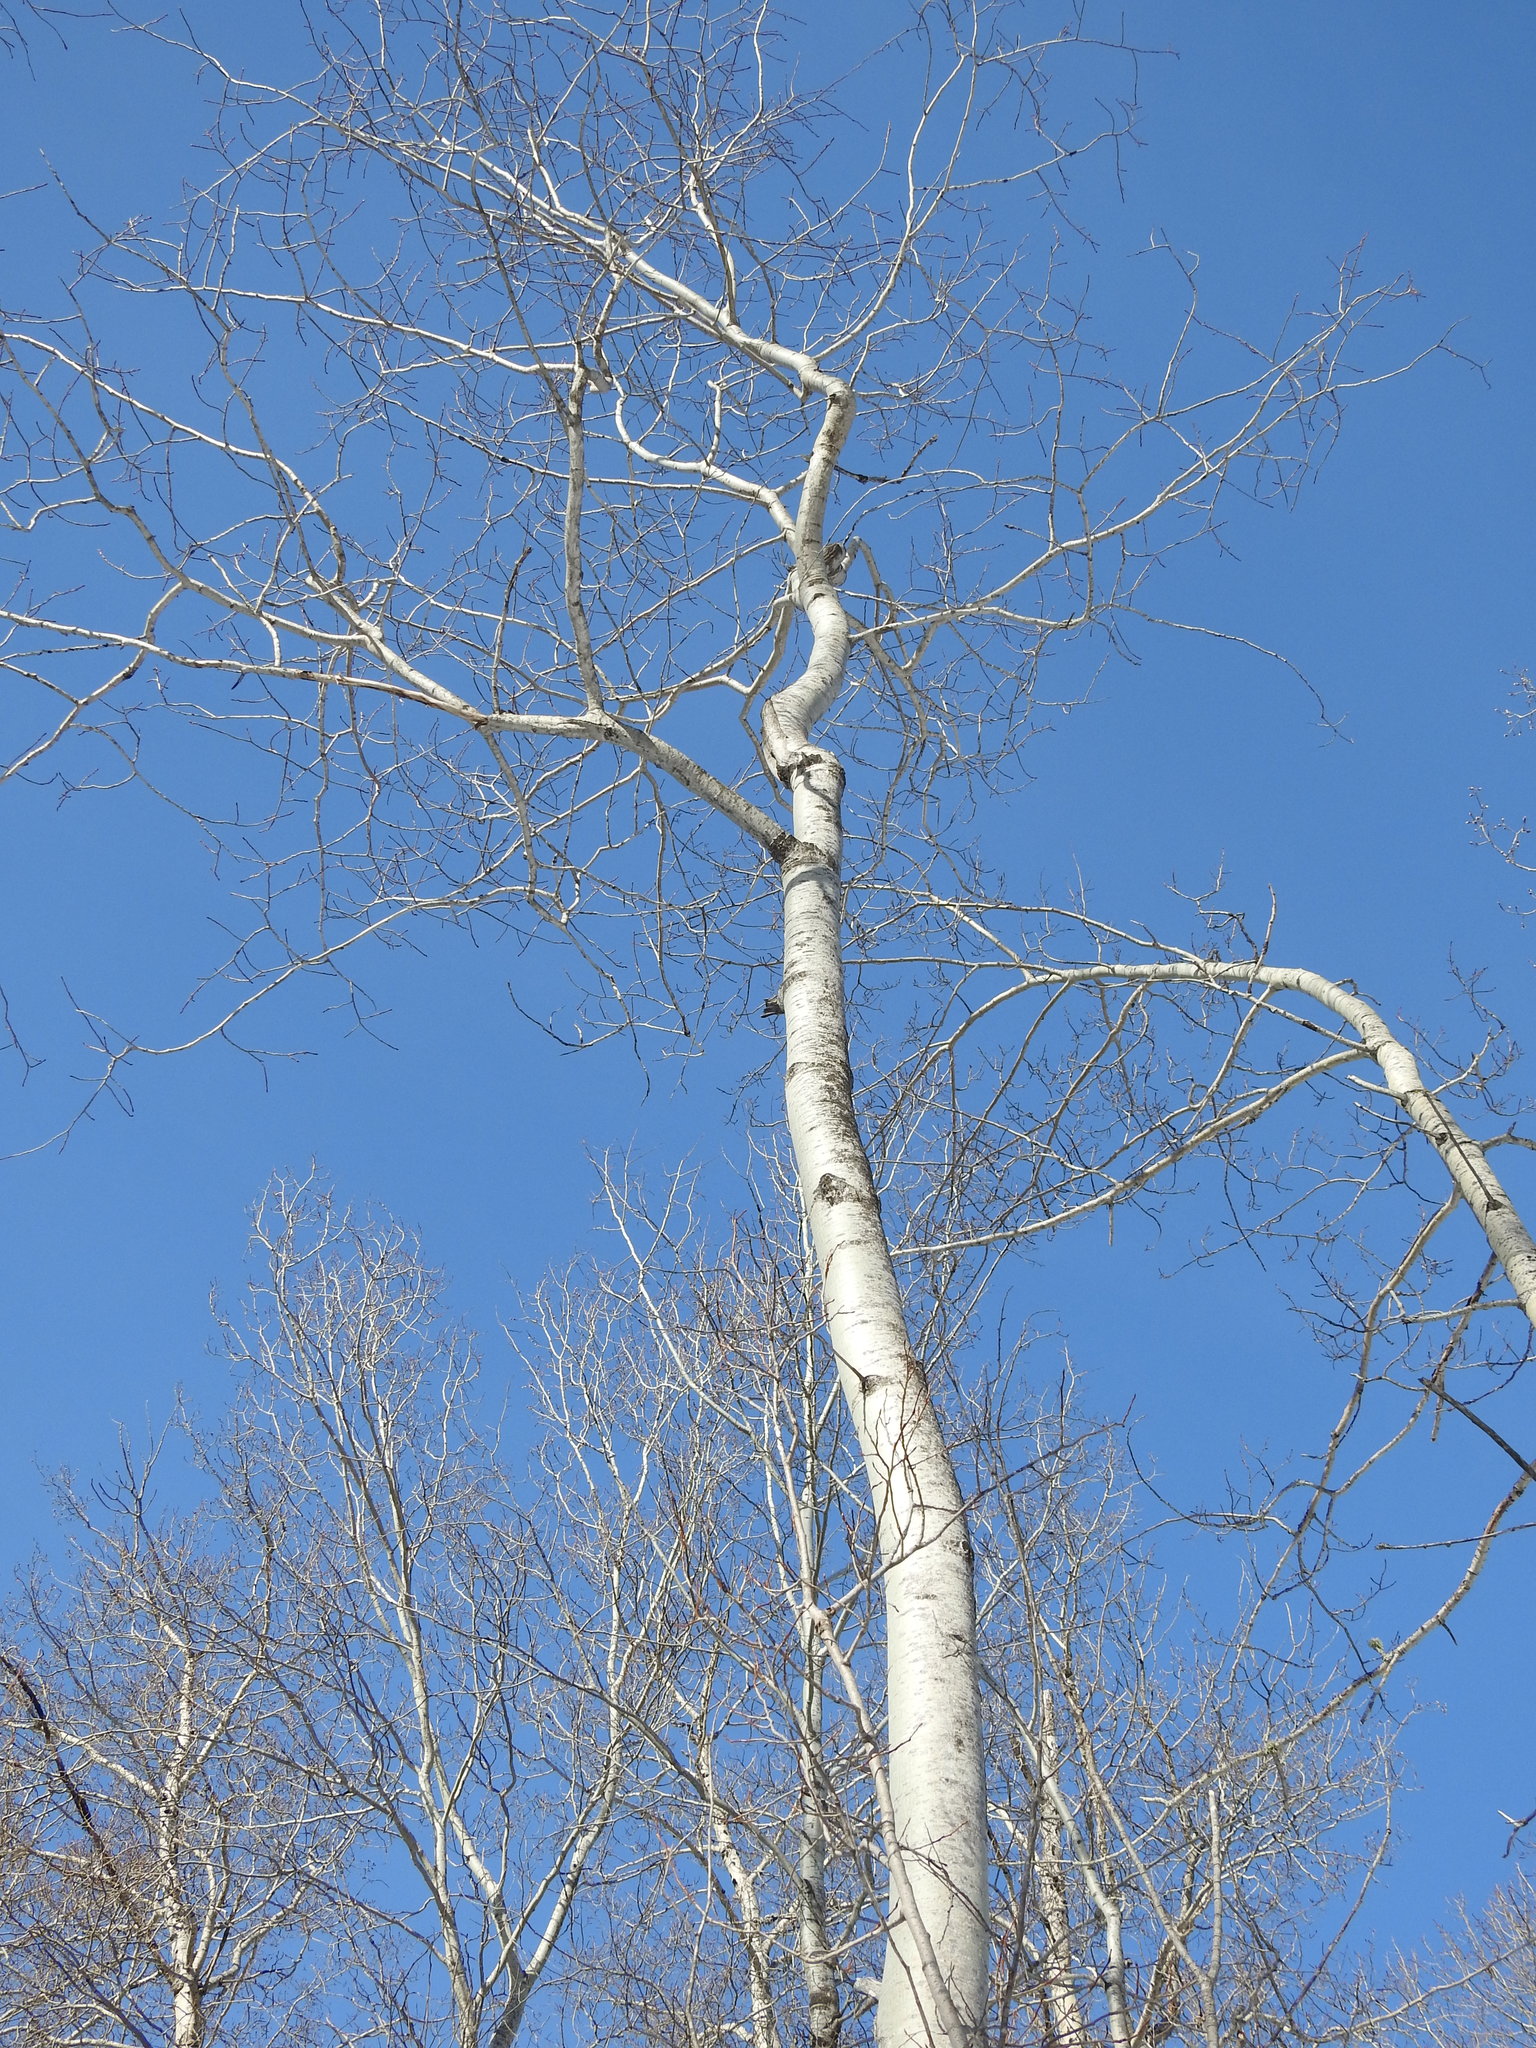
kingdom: Plantae
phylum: Tracheophyta
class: Magnoliopsida
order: Malpighiales
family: Salicaceae
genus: Populus
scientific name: Populus tremuloides
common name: Quaking aspen
